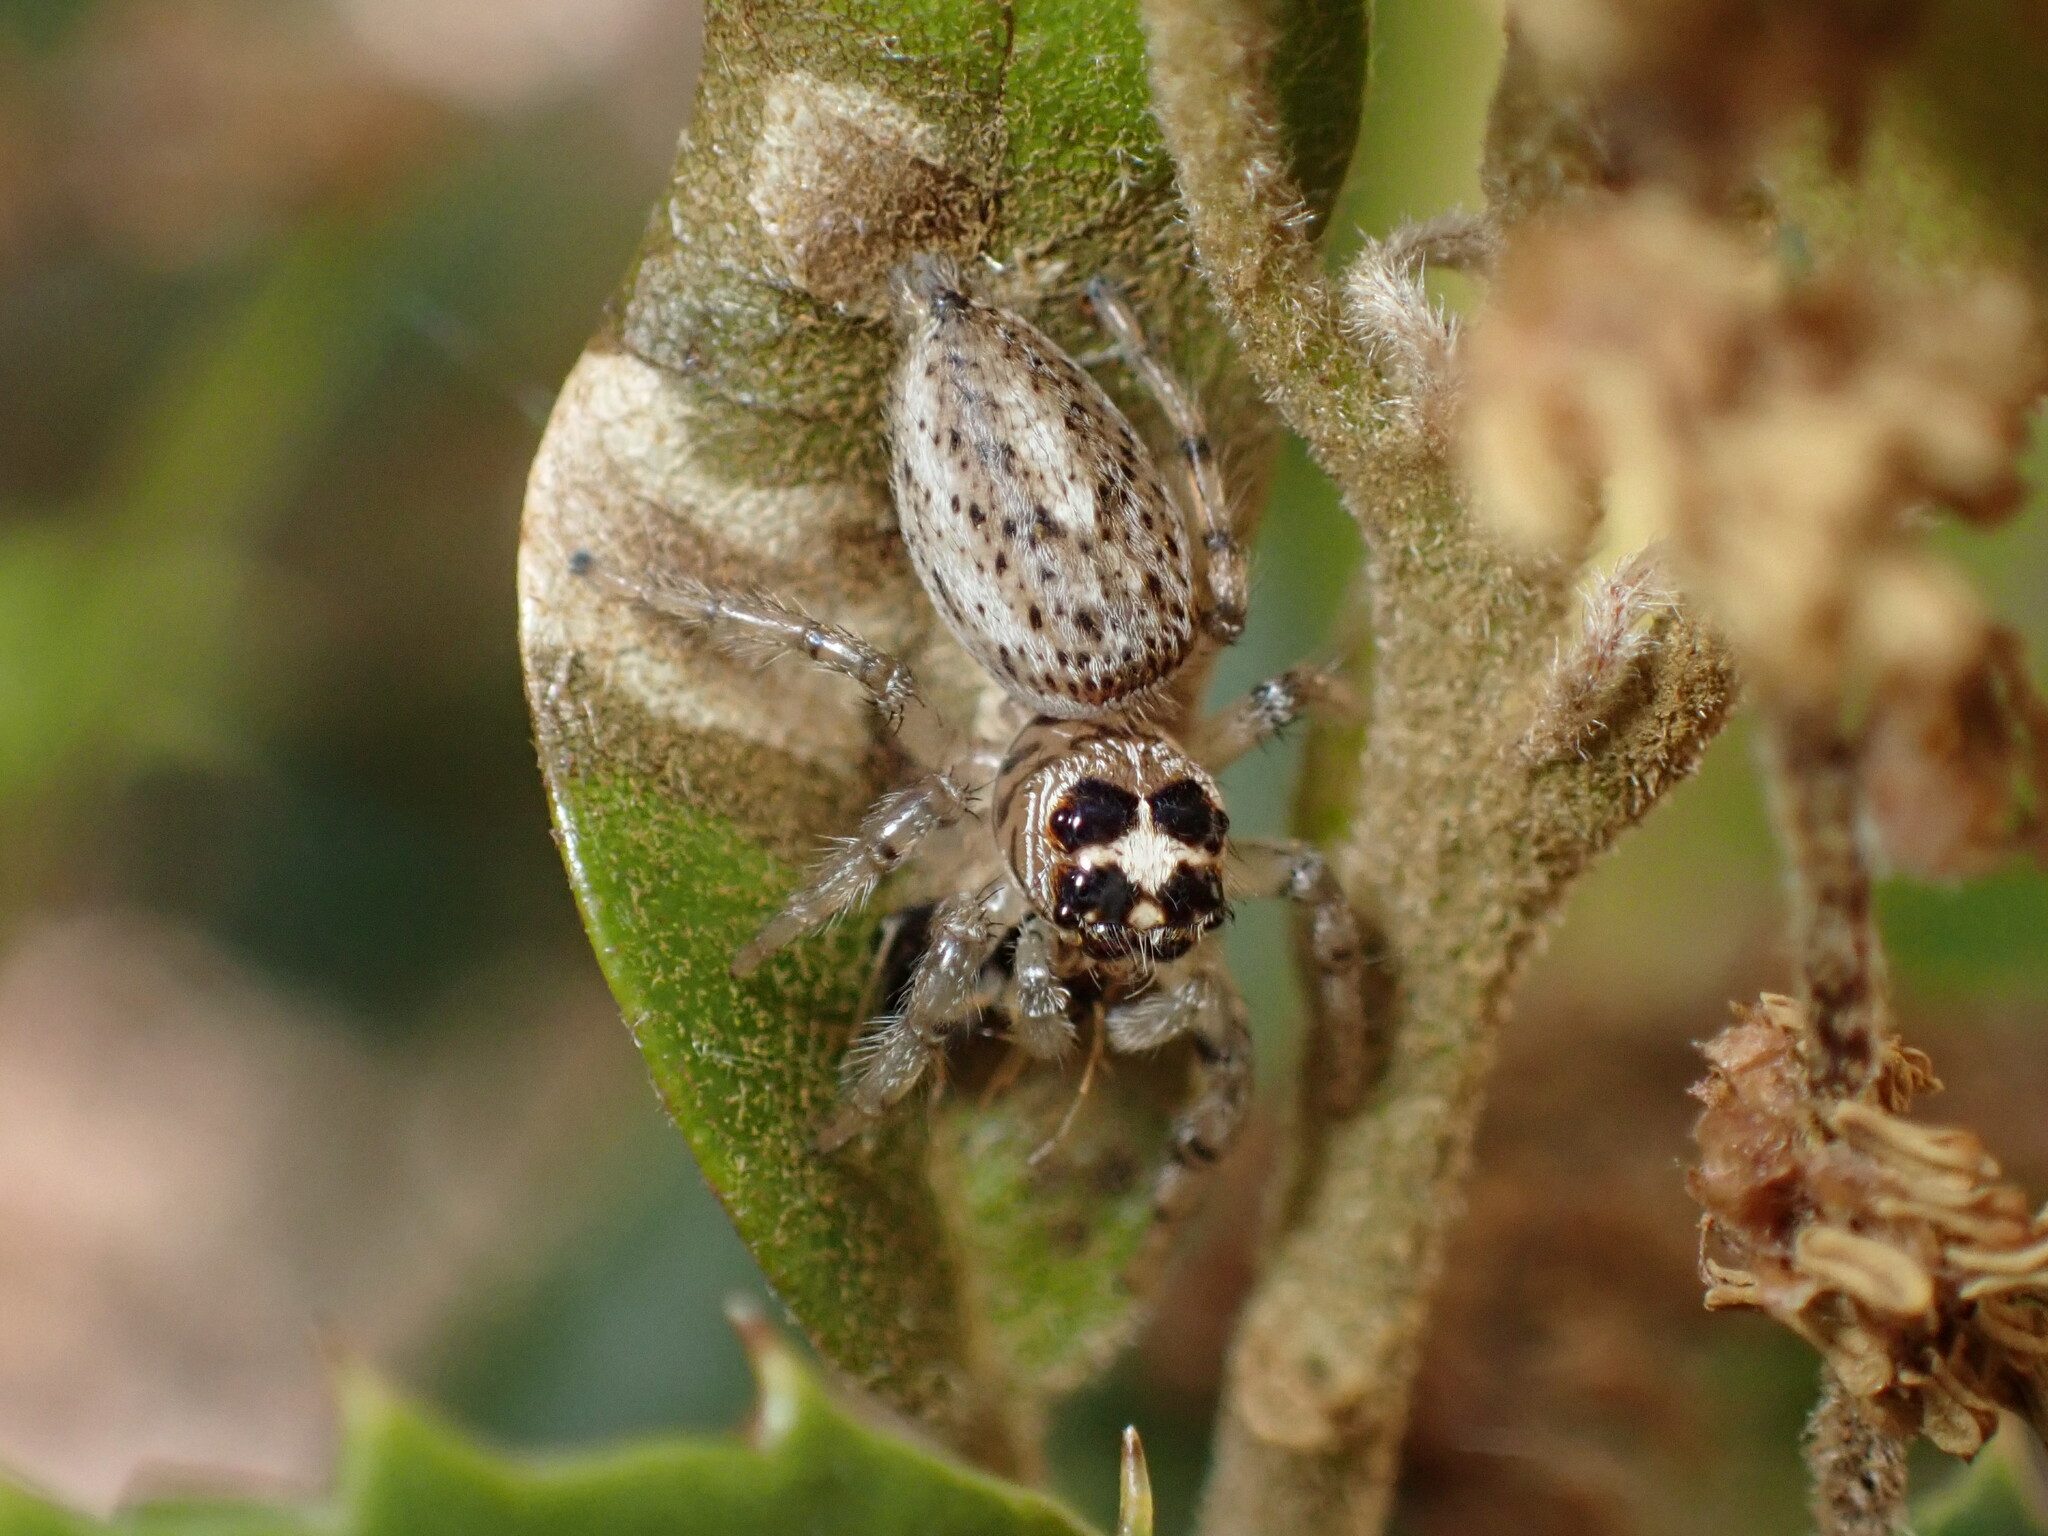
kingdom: Animalia
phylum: Arthropoda
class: Arachnida
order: Araneae
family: Salticidae
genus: Colonus
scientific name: Colonus hesperus
